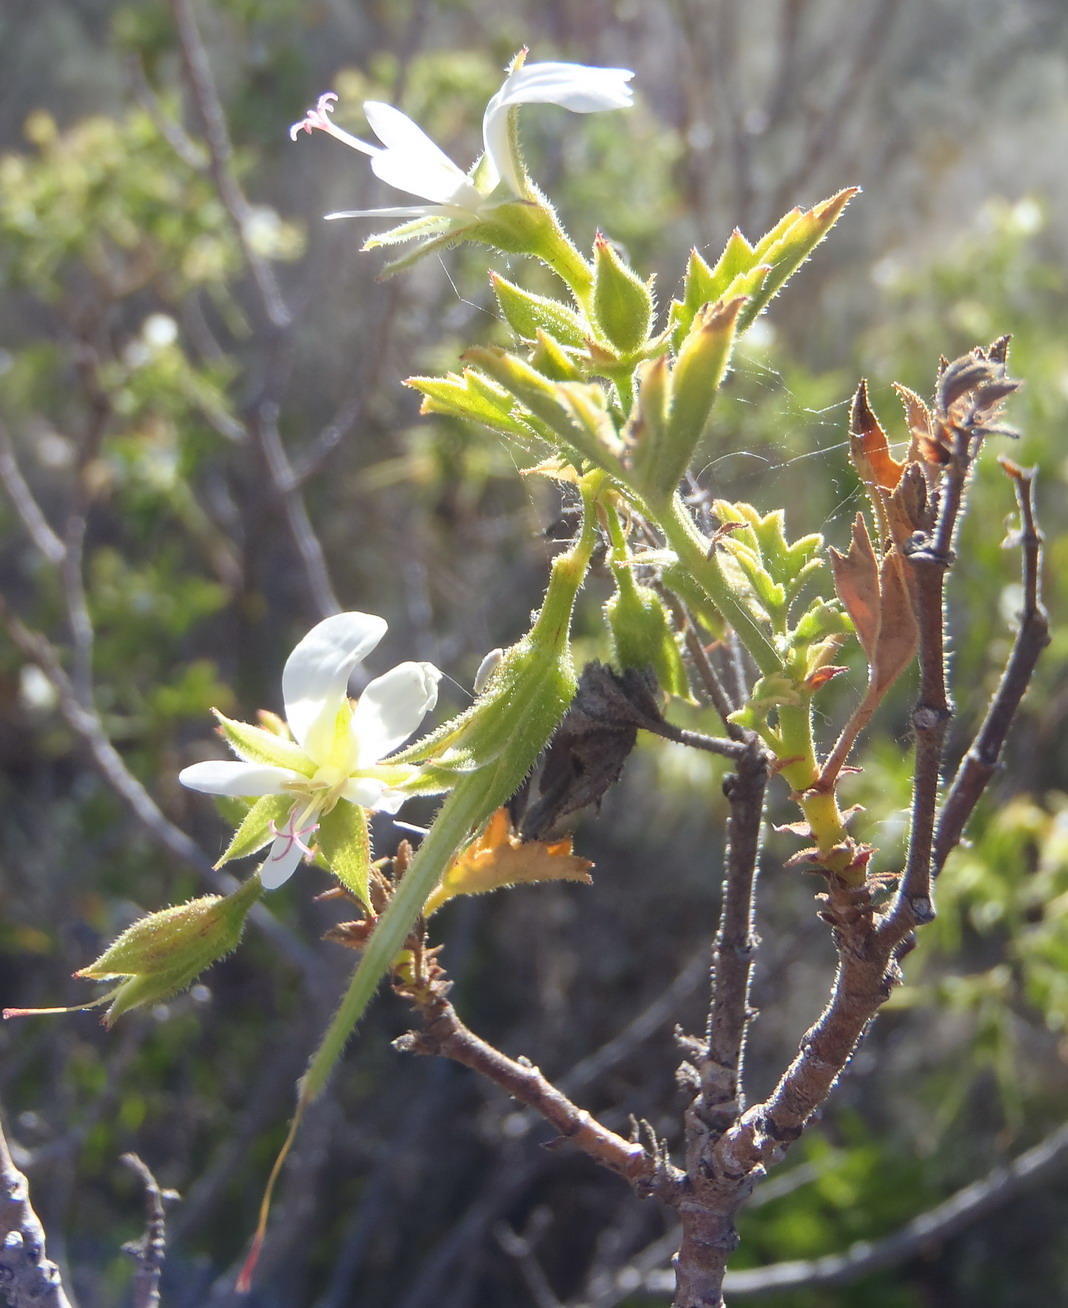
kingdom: Plantae
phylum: Tracheophyta
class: Magnoliopsida
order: Geraniales
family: Geraniaceae
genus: Pelargonium
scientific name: Pelargonium scabrum
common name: Apricot geranium
